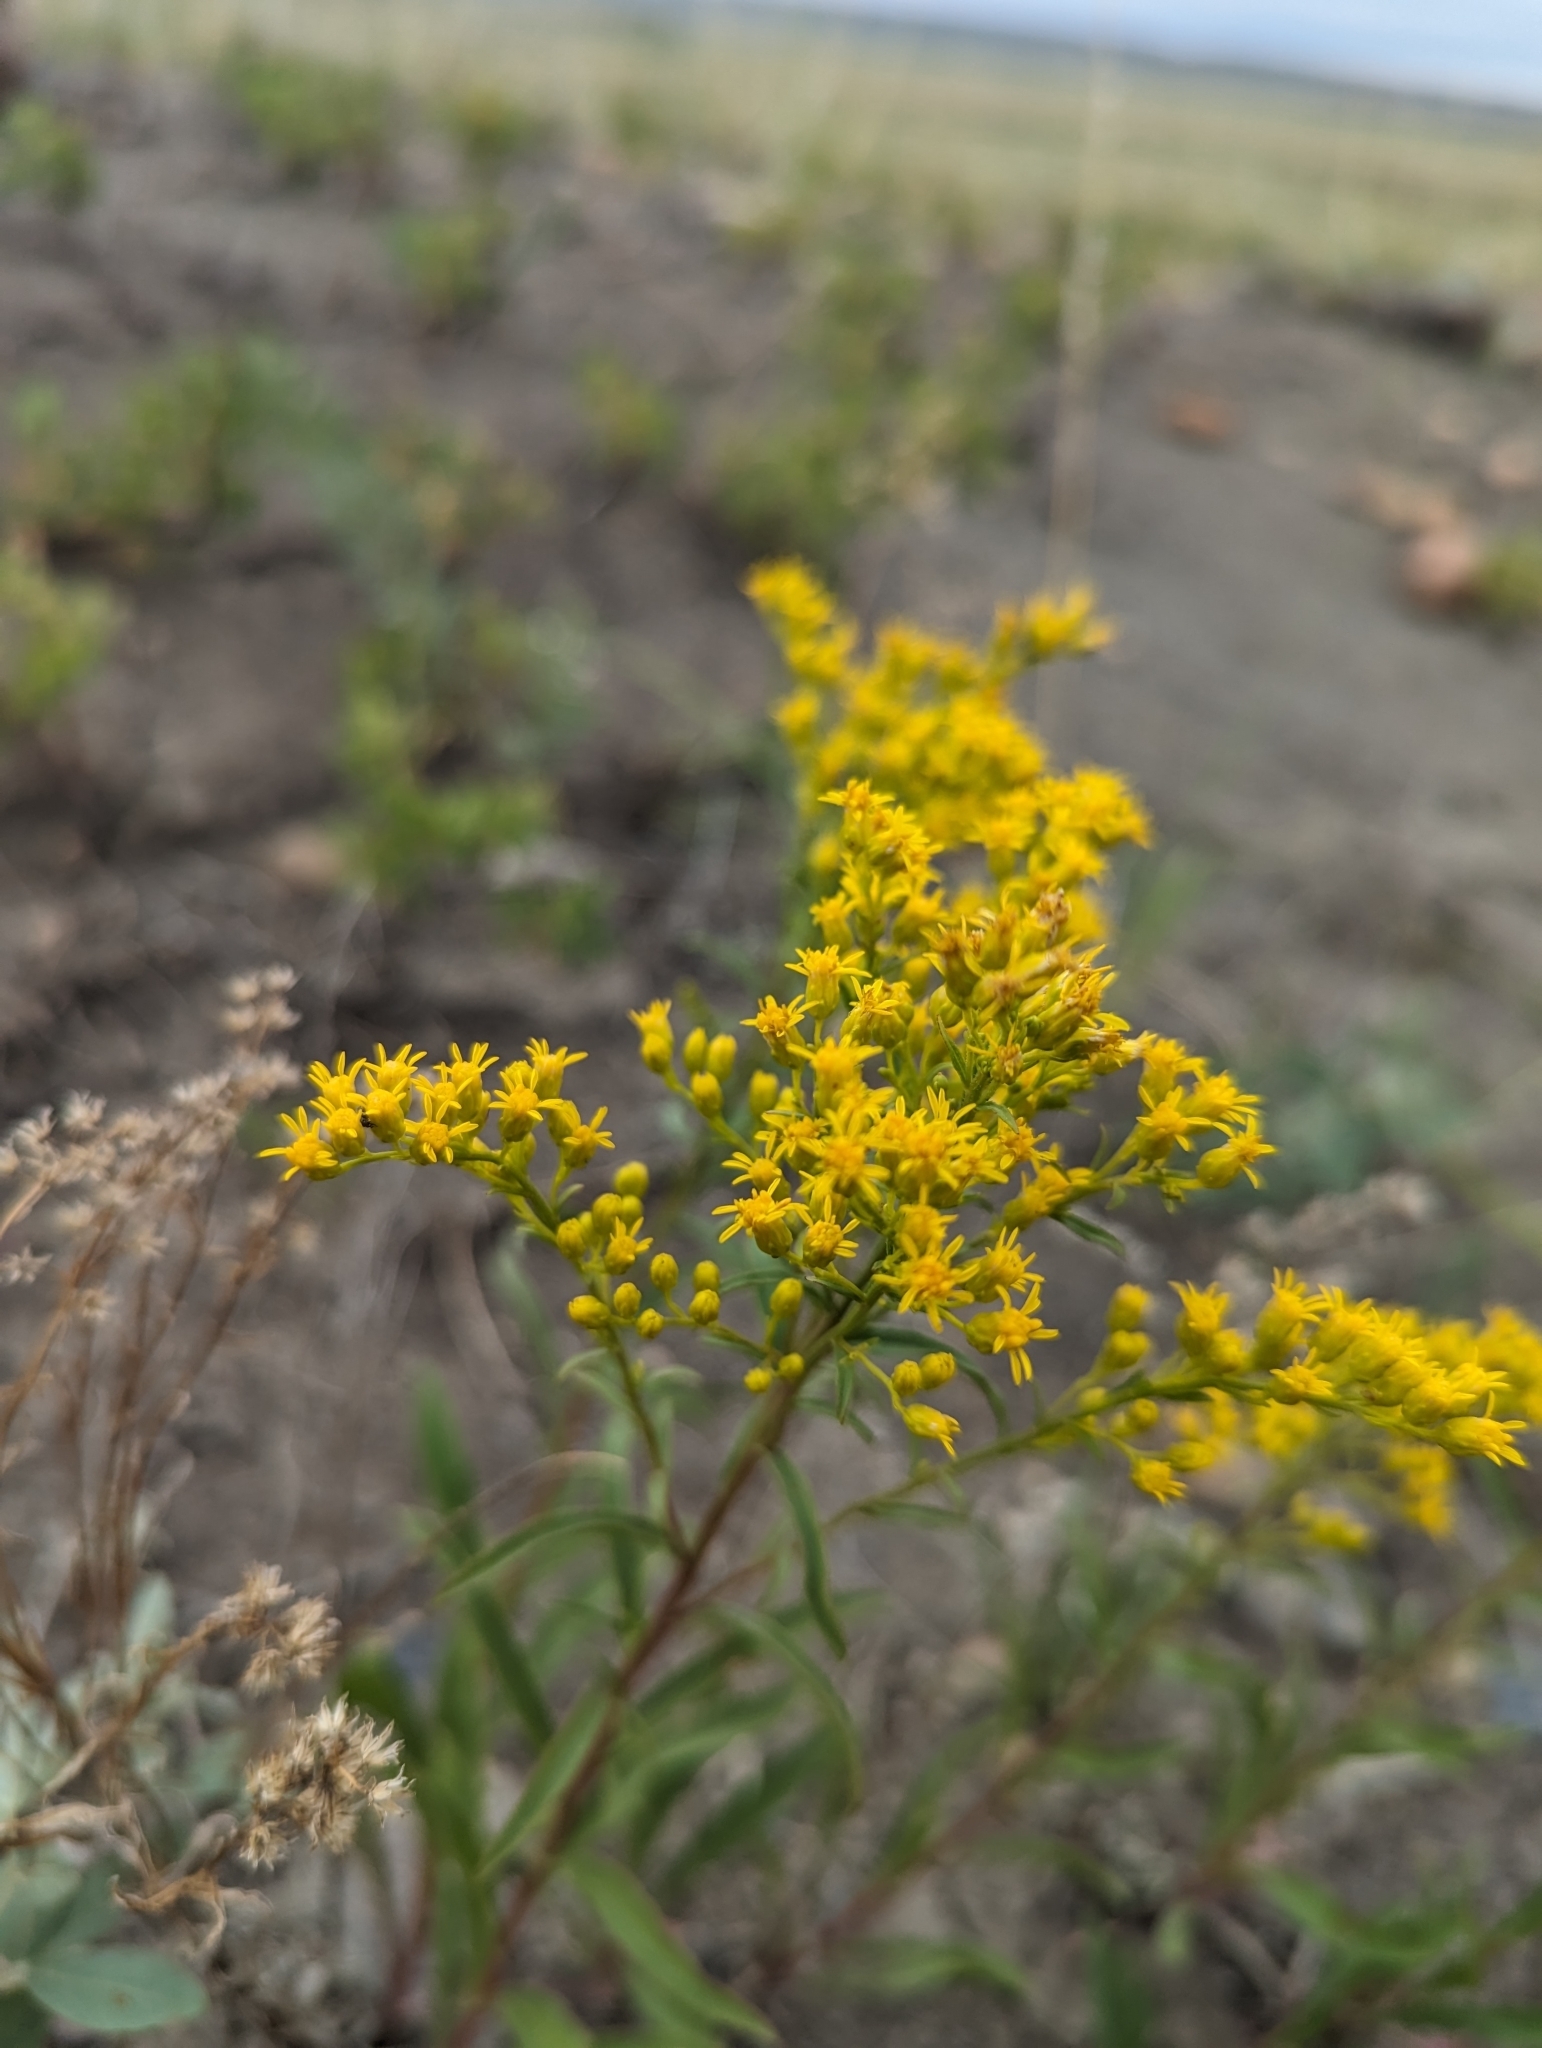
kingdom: Plantae
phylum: Tracheophyta
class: Magnoliopsida
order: Asterales
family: Asteraceae
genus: Solidago
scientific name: Solidago missouriensis
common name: Prairie goldenrod
